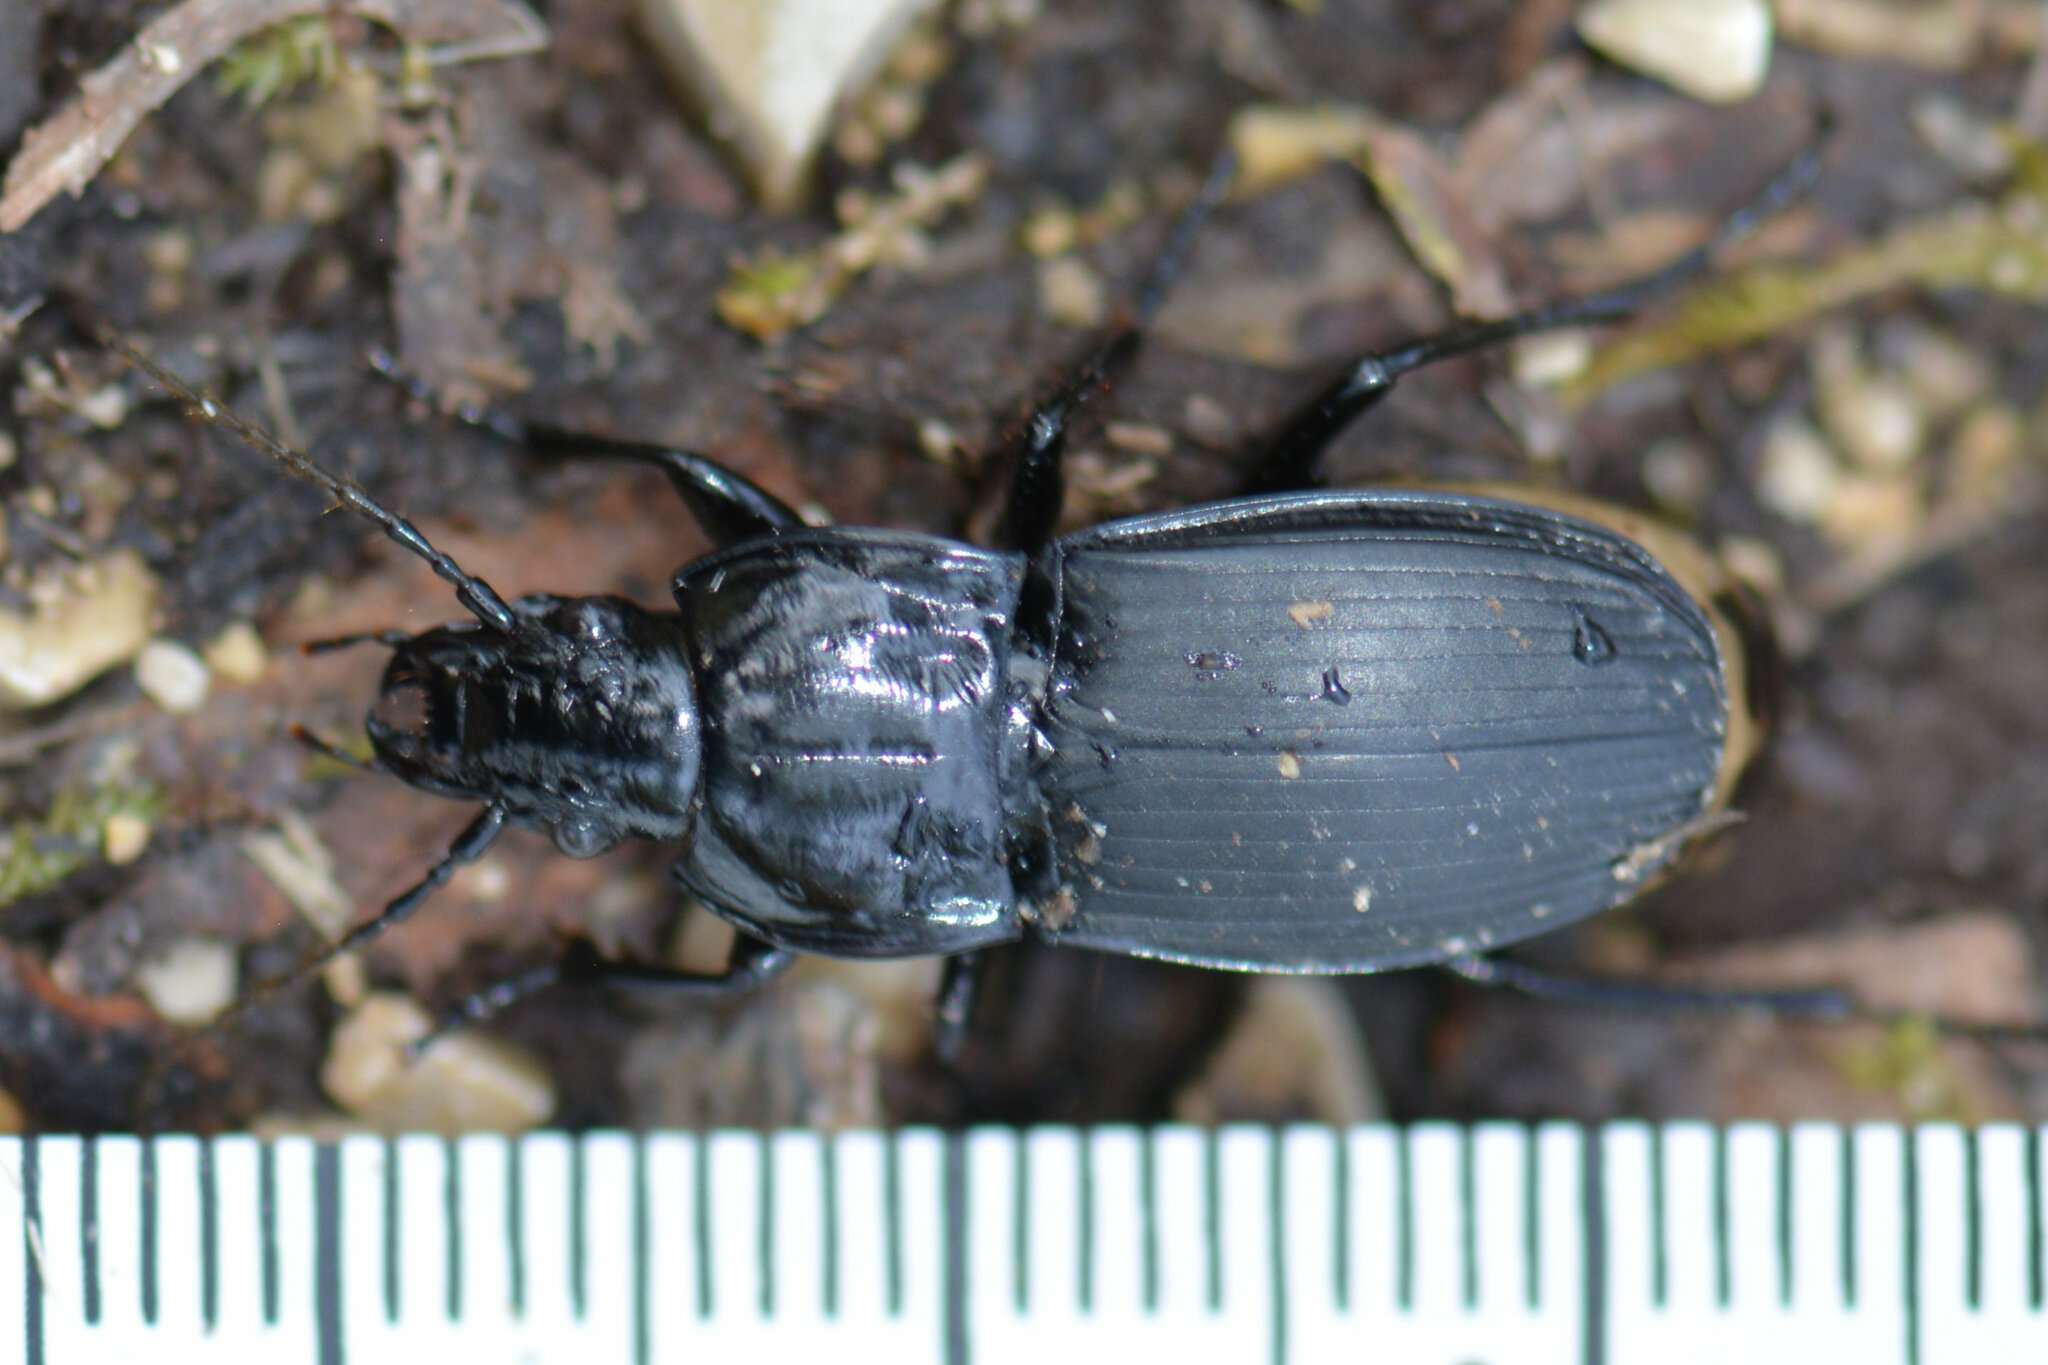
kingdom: Animalia
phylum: Arthropoda
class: Insecta
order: Coleoptera
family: Carabidae
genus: Abax
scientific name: Abax parallelepipedus
